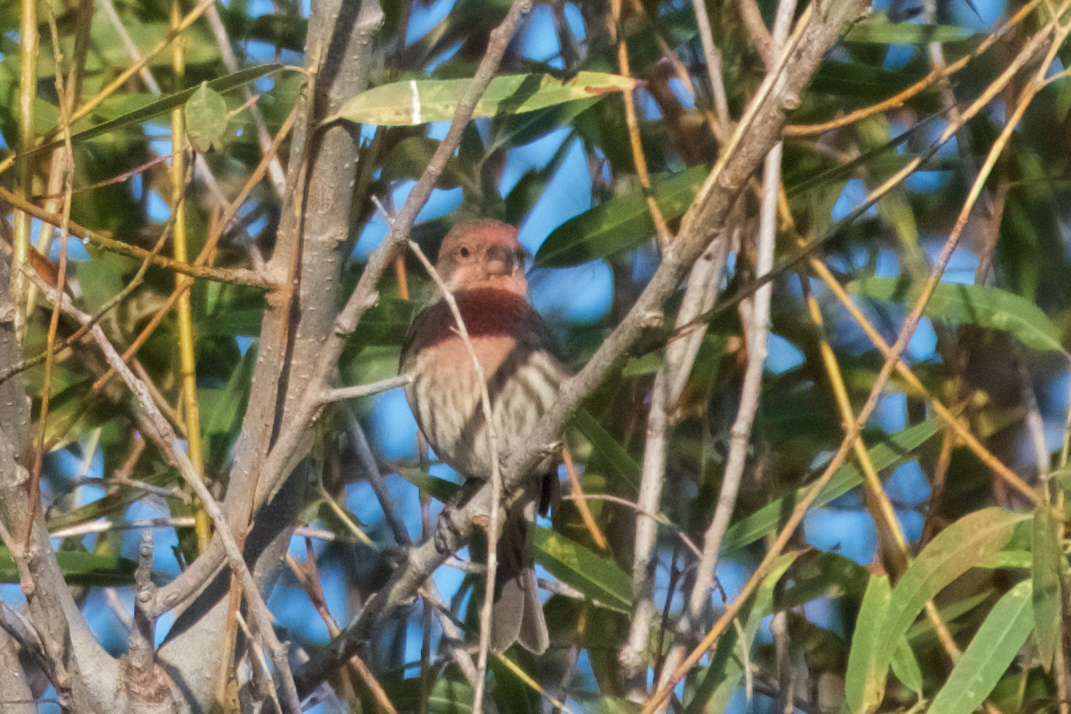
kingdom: Animalia
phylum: Chordata
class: Aves
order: Passeriformes
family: Fringillidae
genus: Haemorhous
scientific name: Haemorhous mexicanus
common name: House finch
